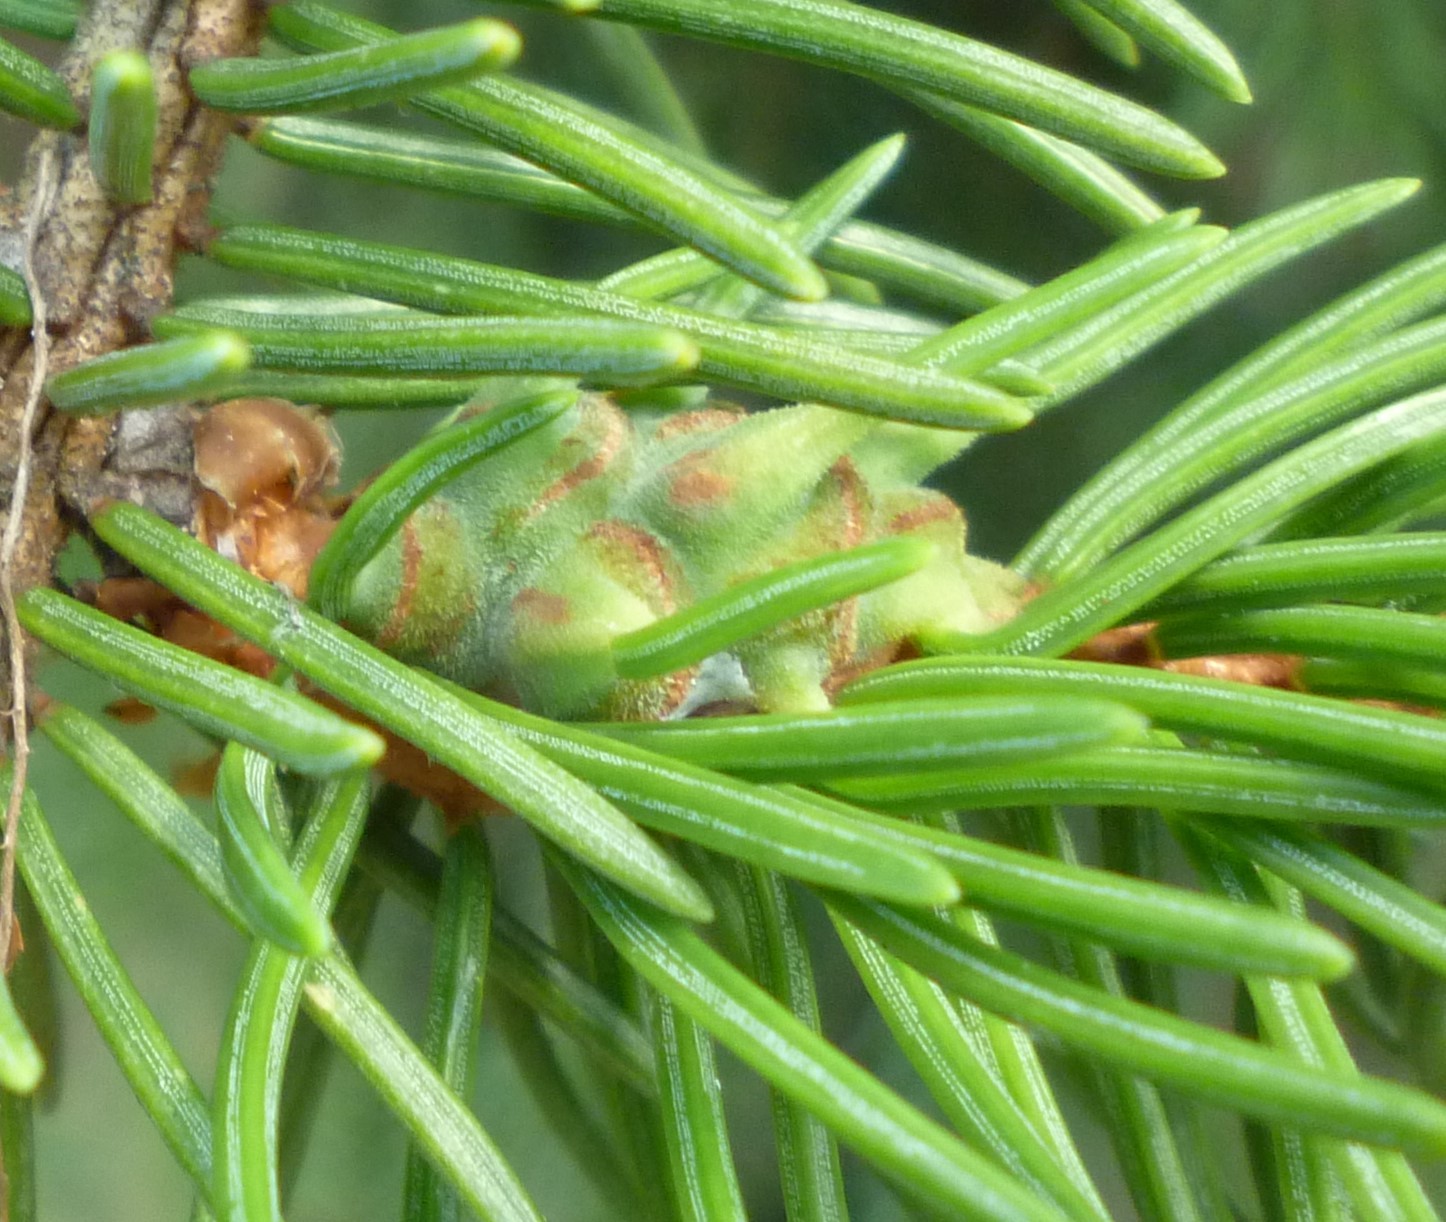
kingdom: Animalia
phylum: Arthropoda
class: Insecta
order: Hemiptera
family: Adelgidae
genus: Adelges
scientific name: Adelges abietis
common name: Eastern spruce gall adelgid
